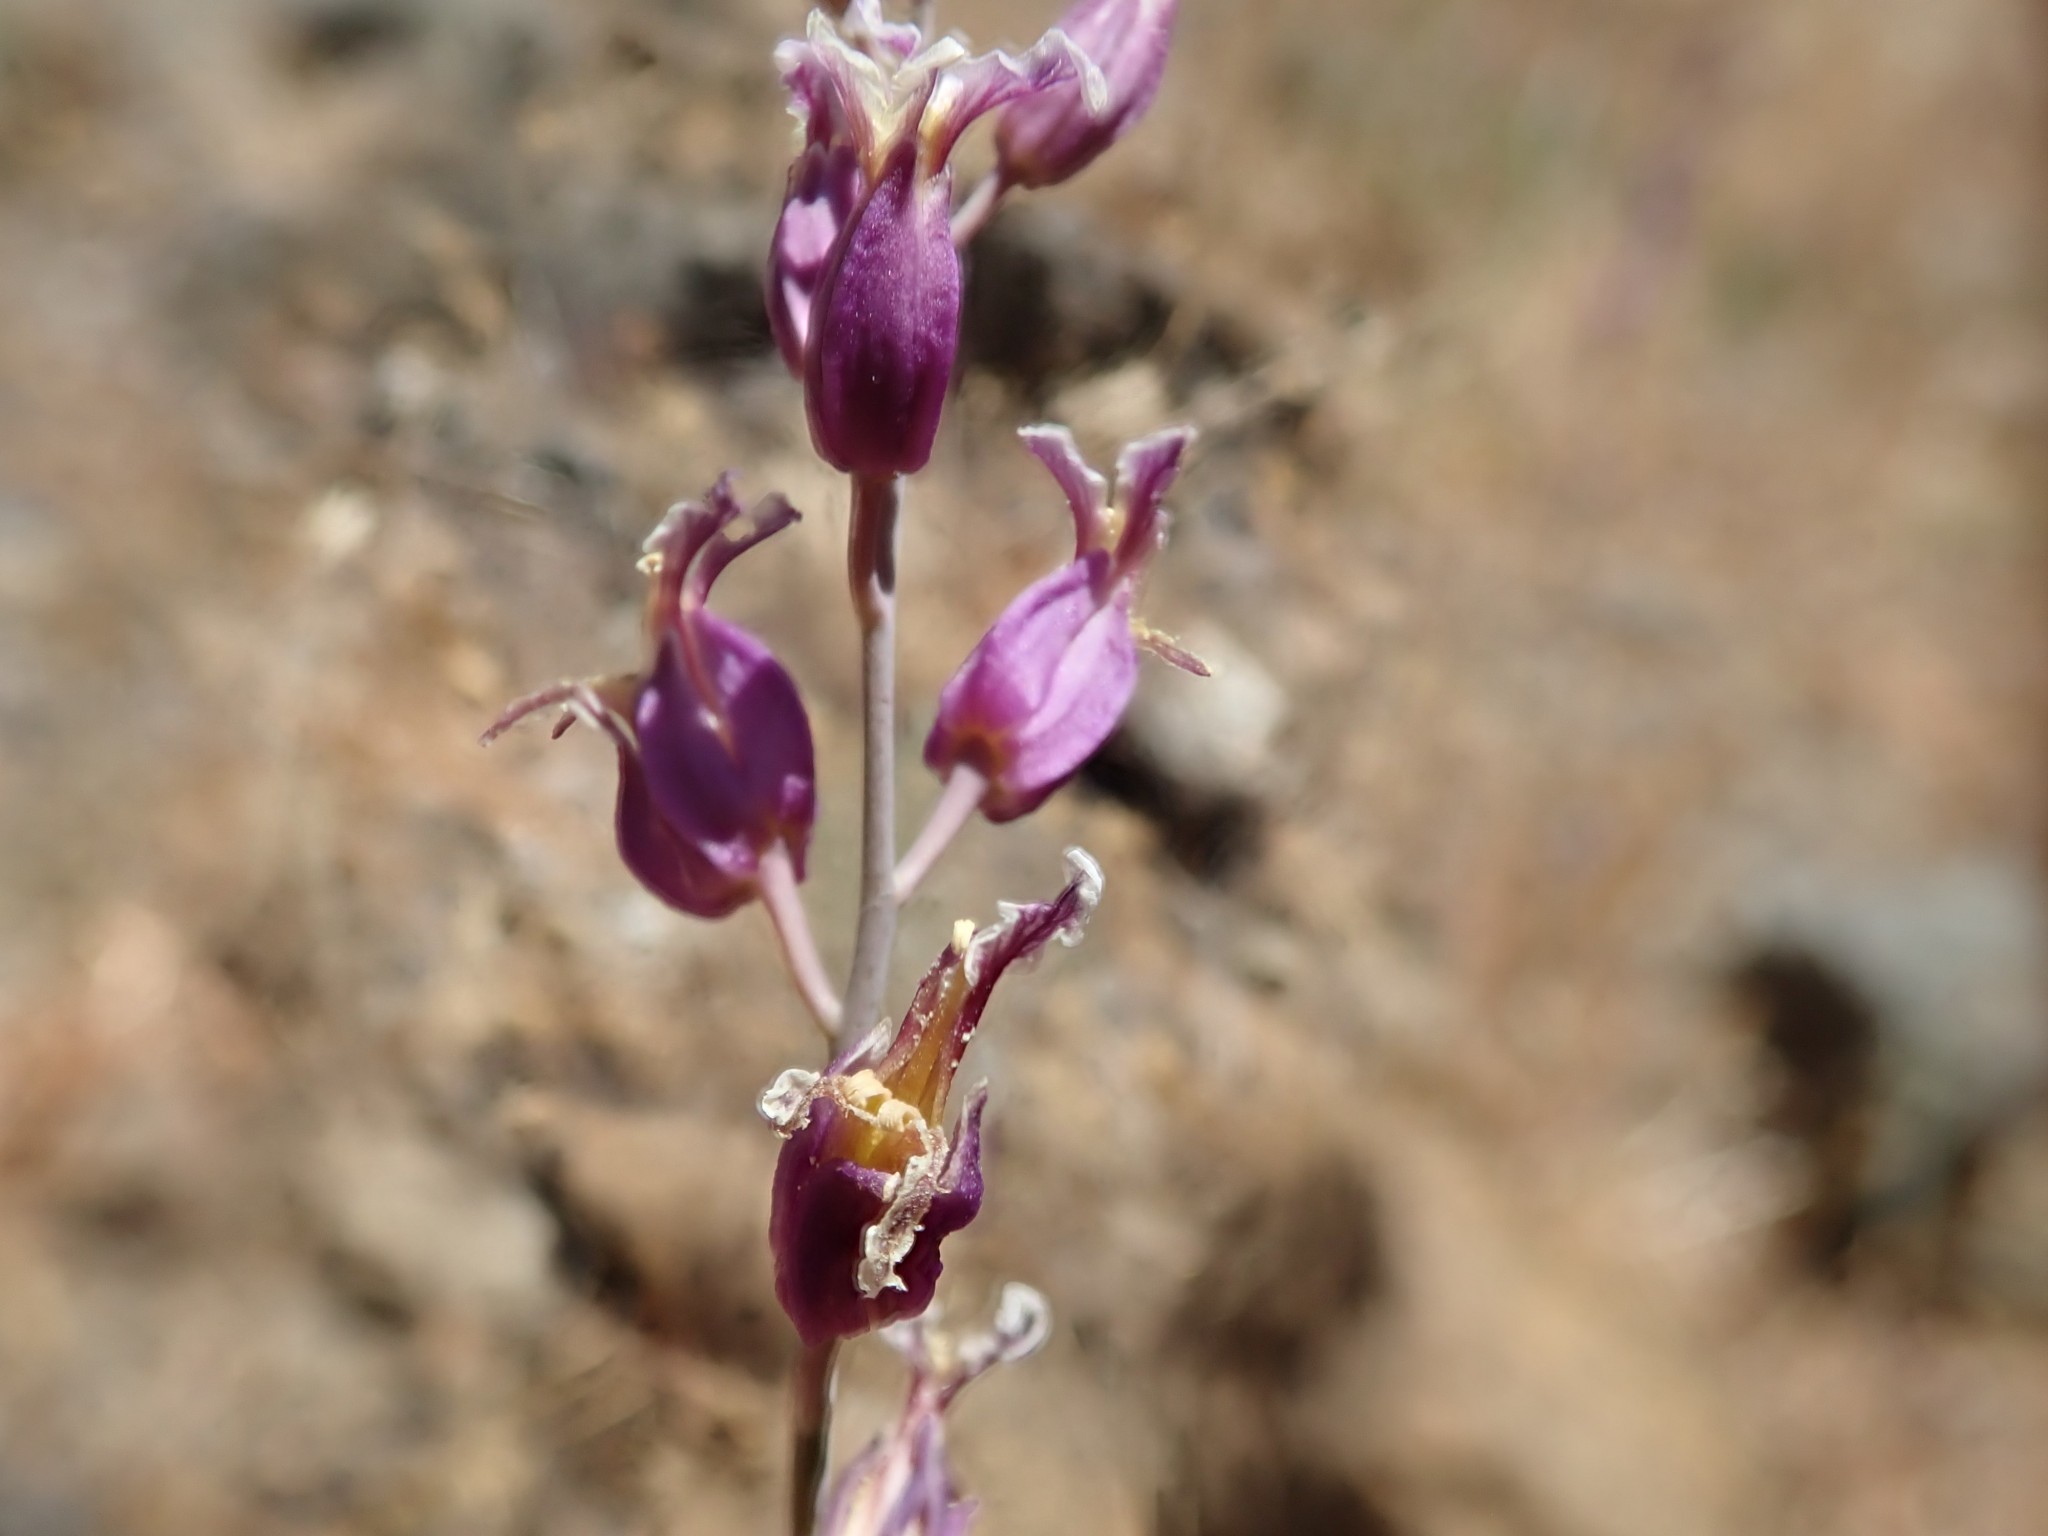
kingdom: Plantae
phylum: Tracheophyta
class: Magnoliopsida
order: Brassicales
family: Brassicaceae
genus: Streptanthus
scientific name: Streptanthus glandulosus
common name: Jewel-flower
